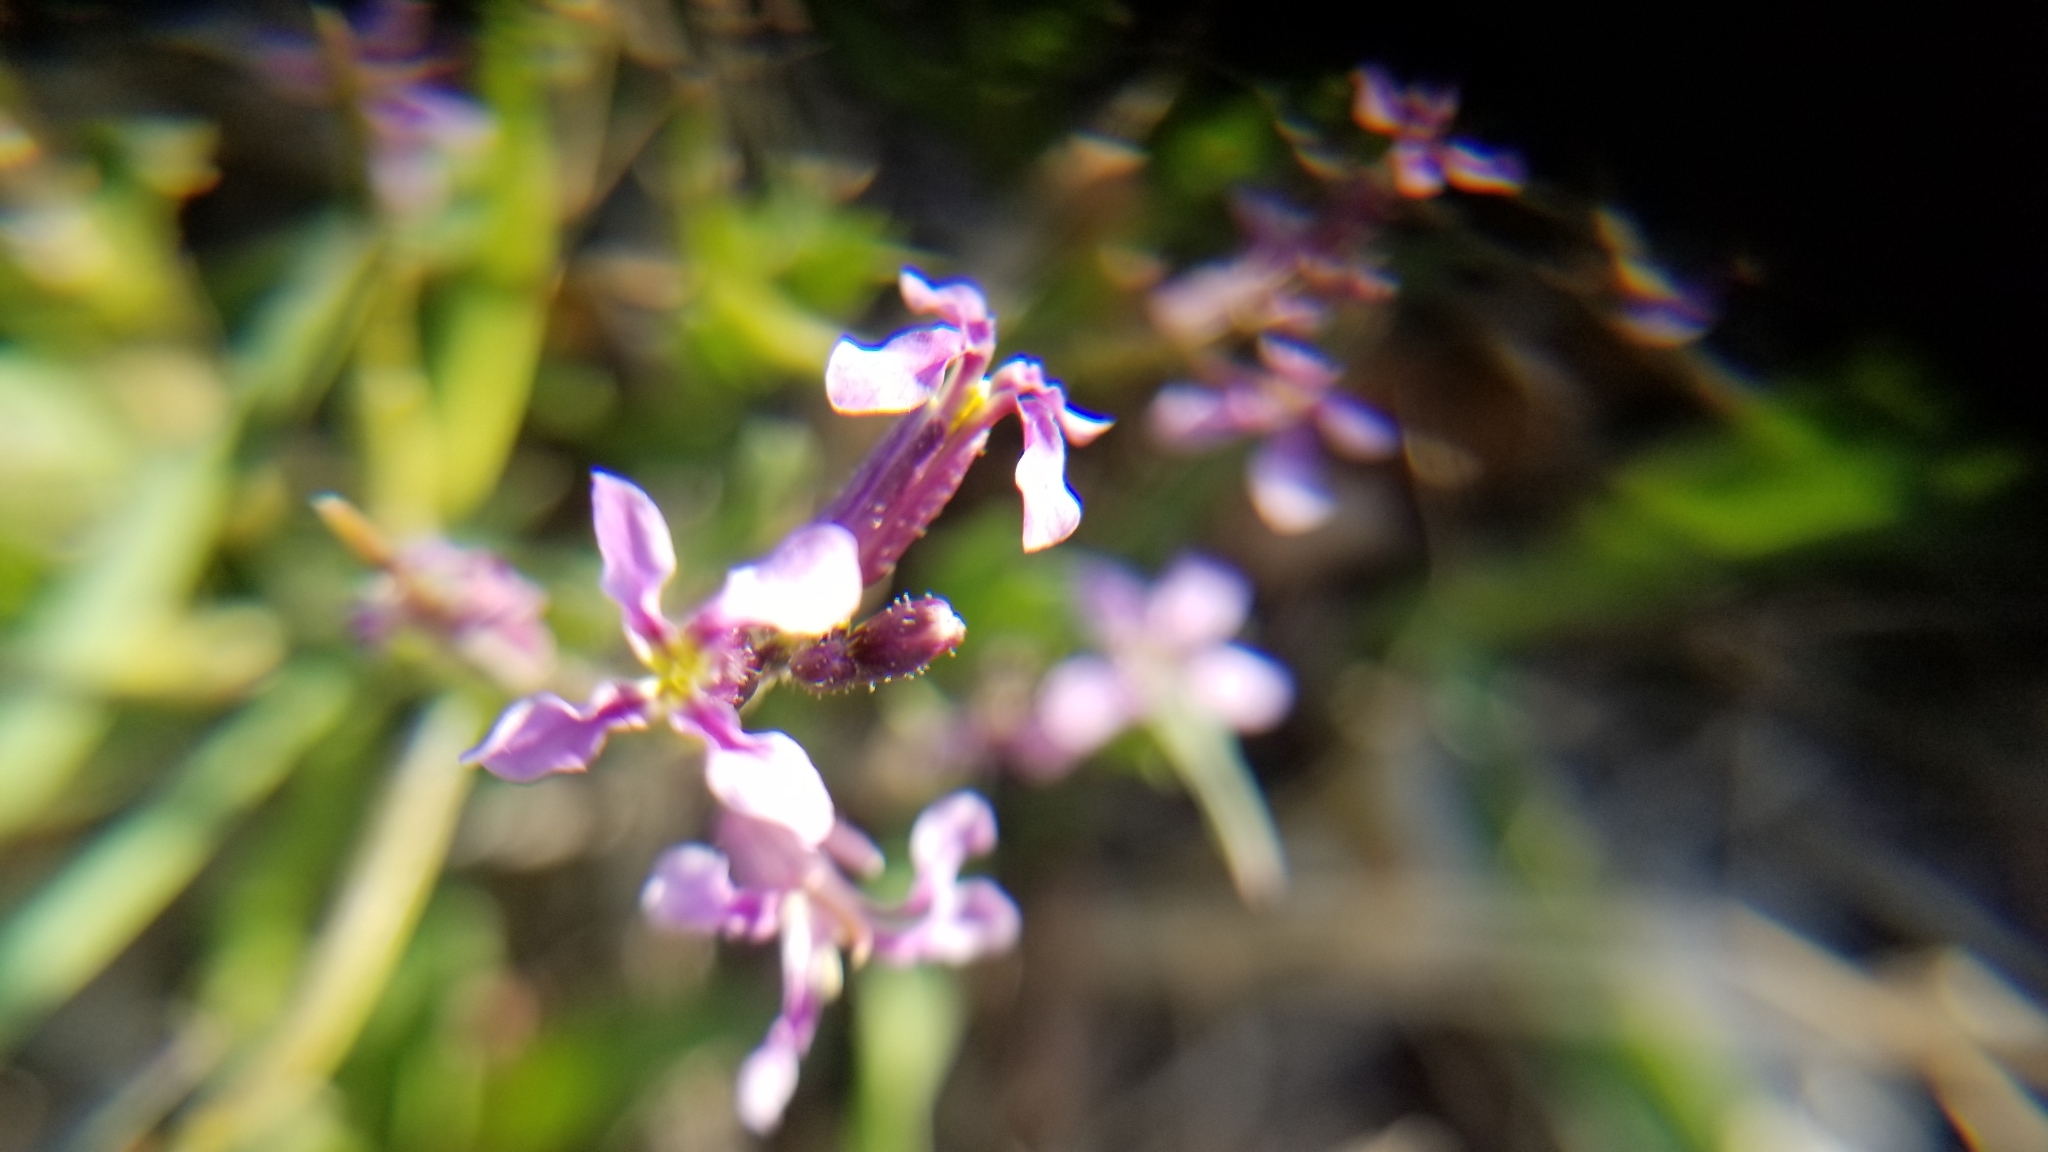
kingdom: Plantae
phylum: Tracheophyta
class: Magnoliopsida
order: Brassicales
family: Brassicaceae
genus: Chorispora
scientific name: Chorispora tenella
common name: Crossflower
